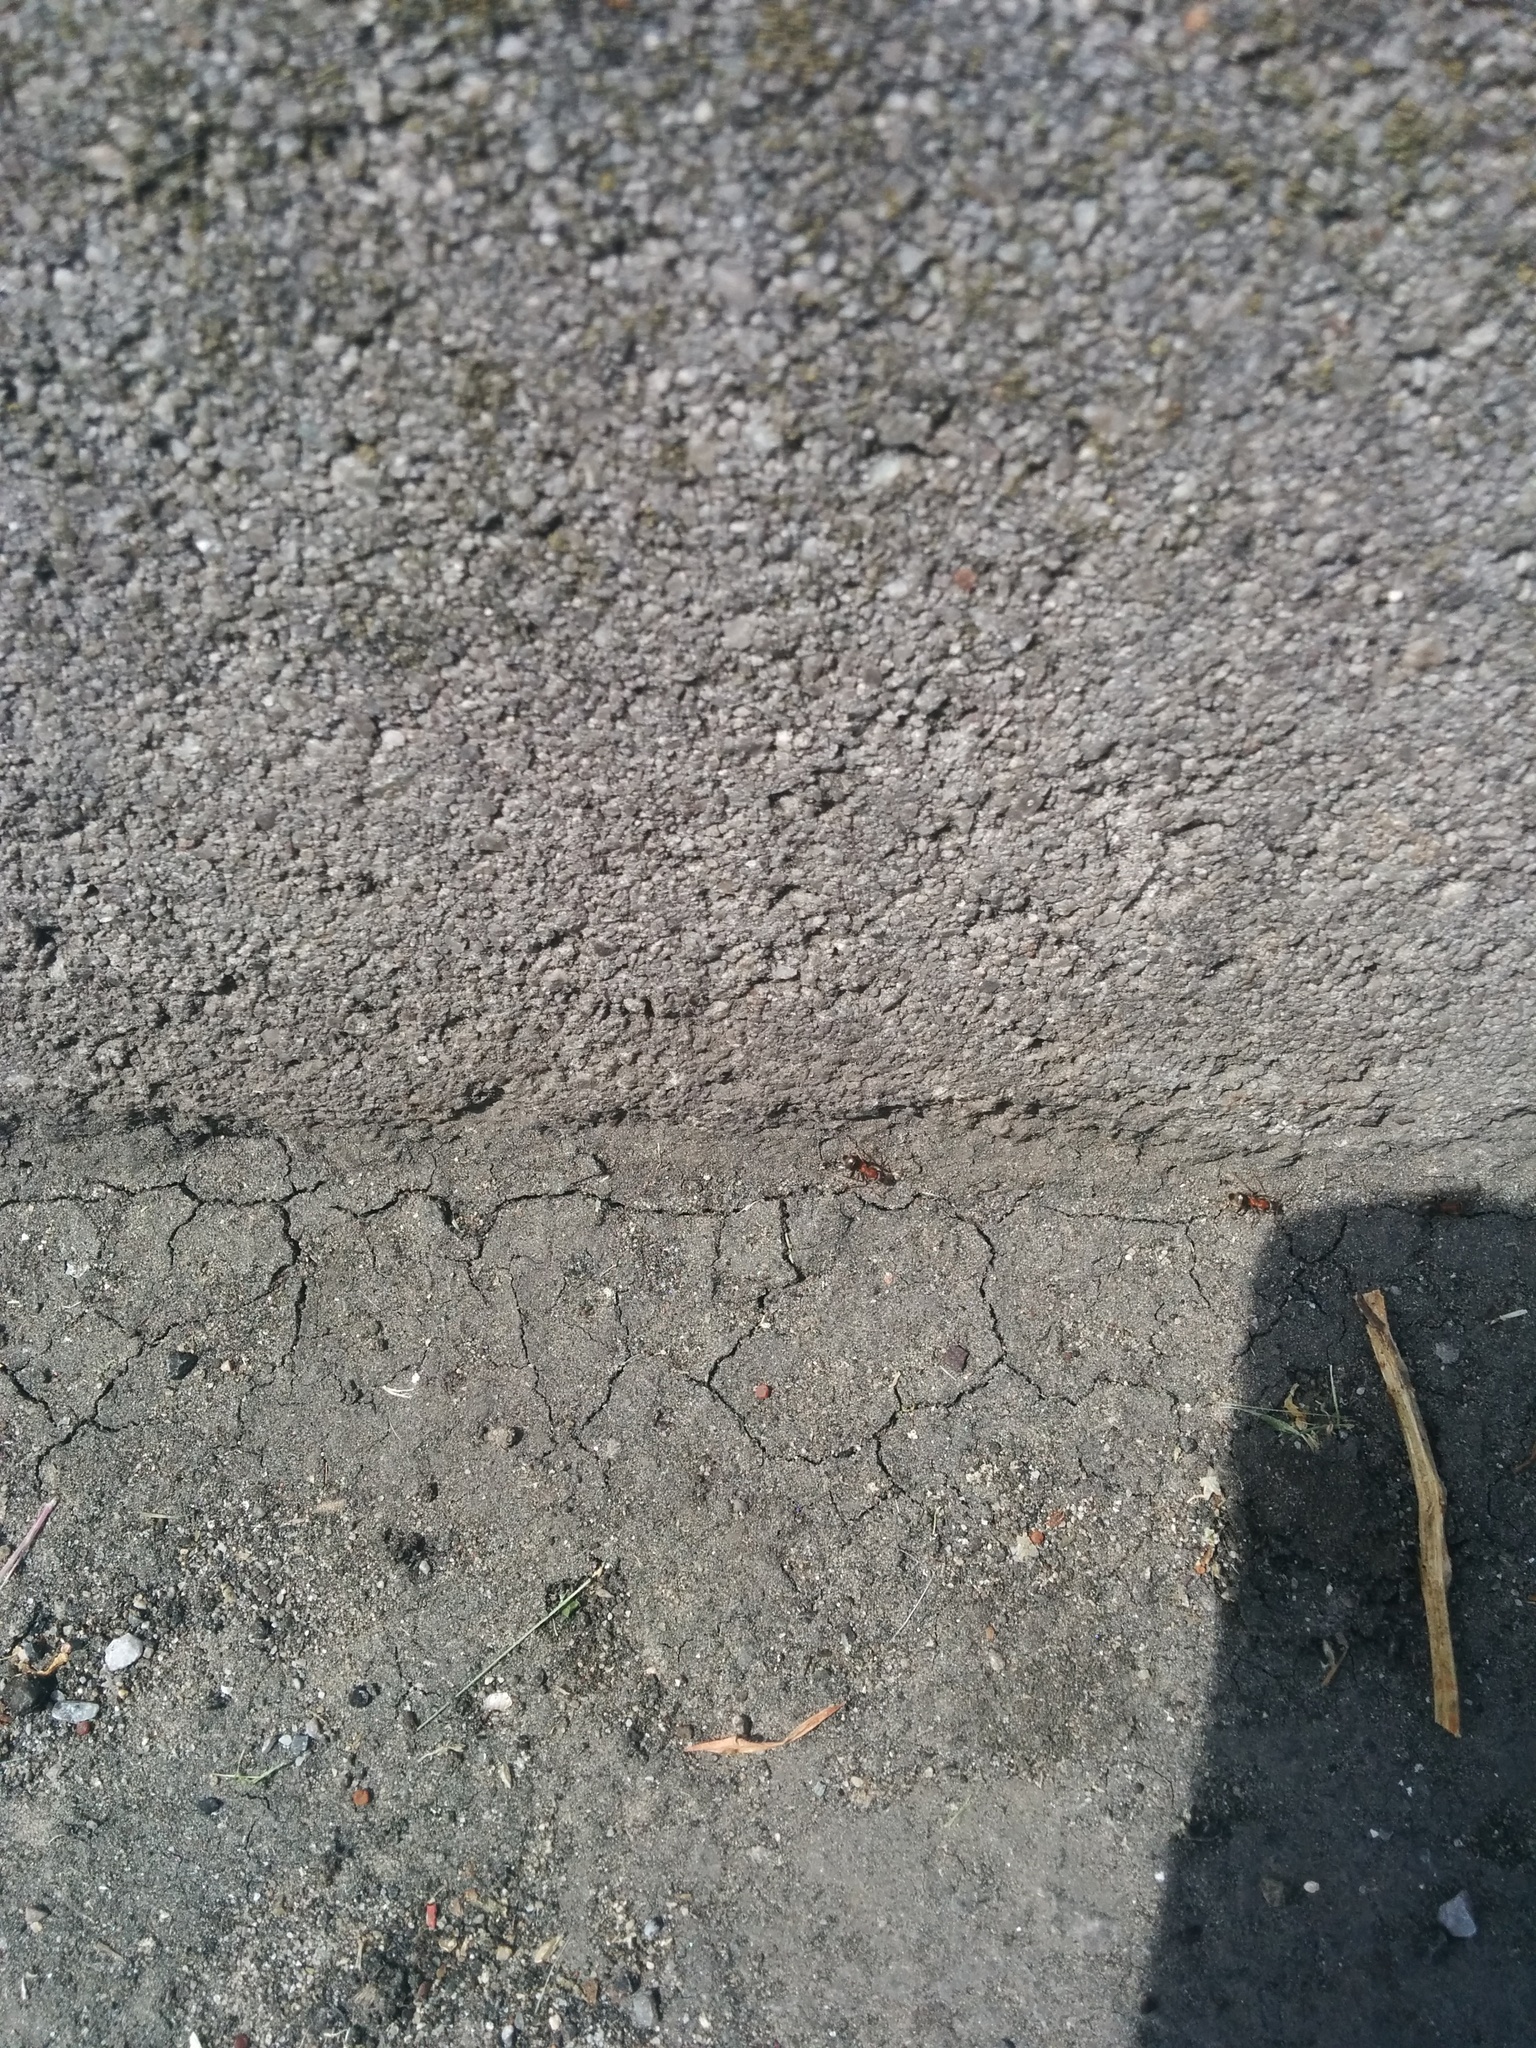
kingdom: Animalia
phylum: Arthropoda
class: Insecta
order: Hymenoptera
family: Formicidae
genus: Lasius
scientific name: Lasius emarginatus
